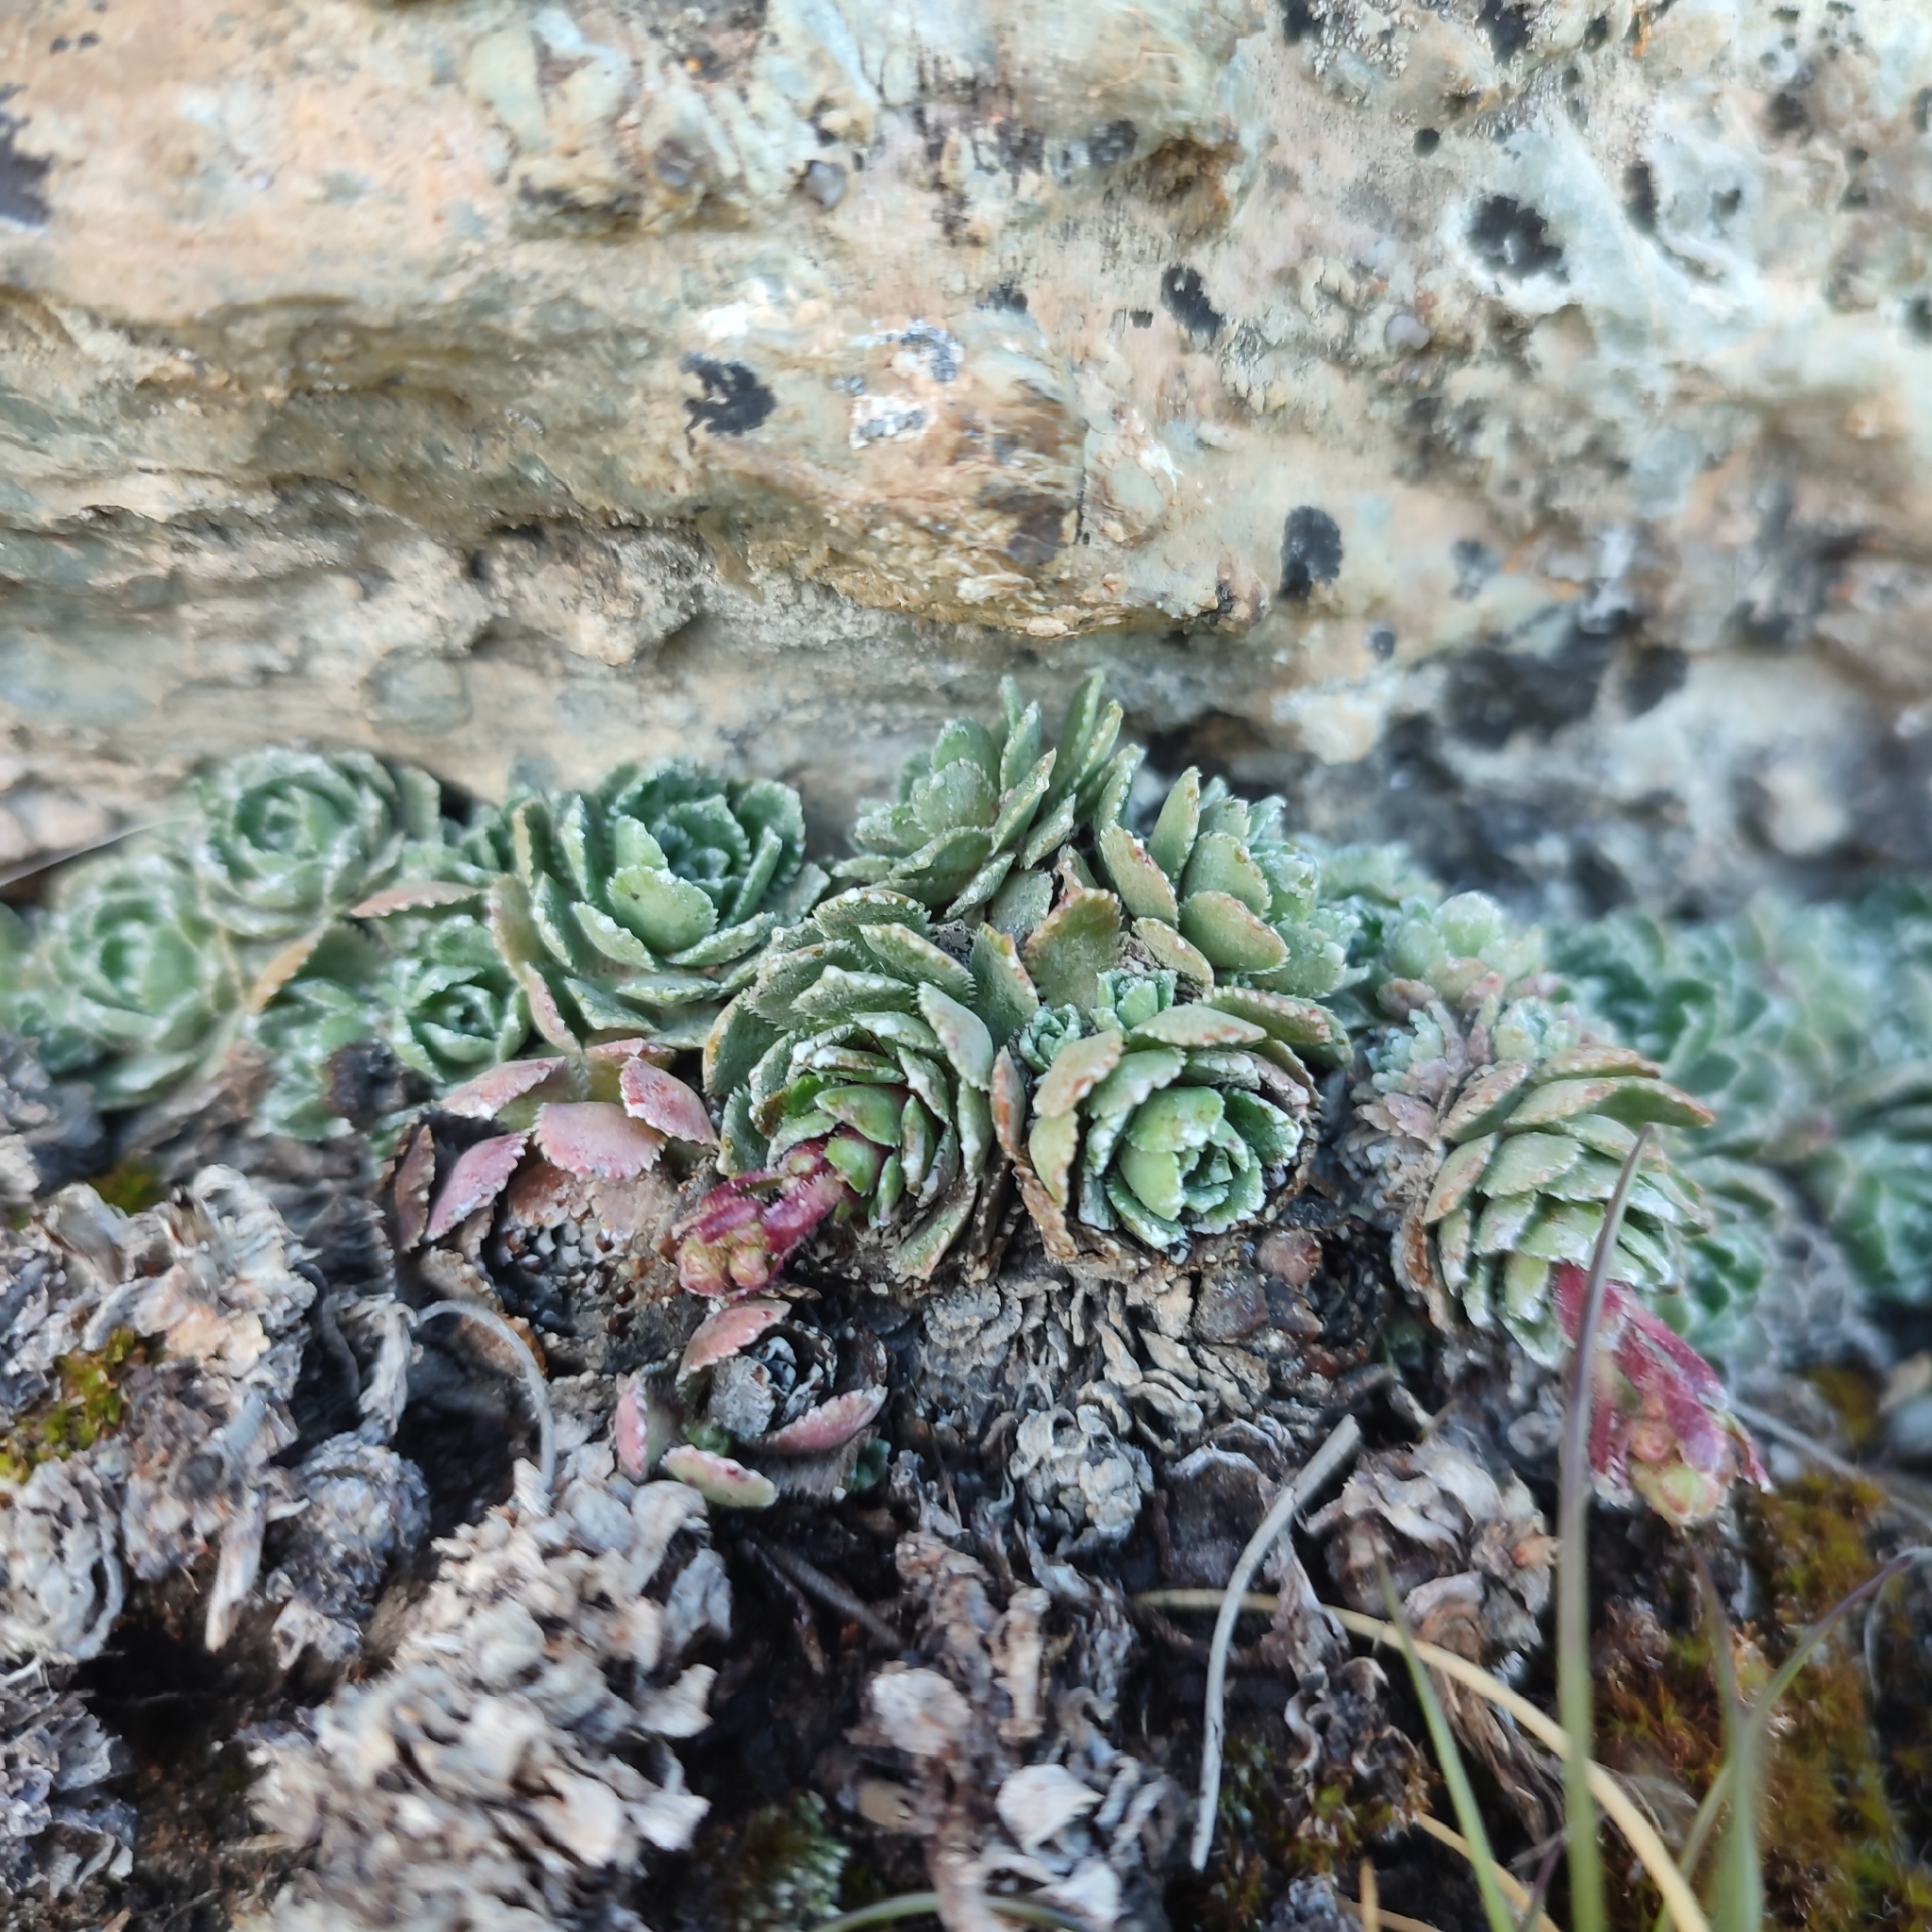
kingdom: Plantae
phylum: Tracheophyta
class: Magnoliopsida
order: Saxifragales
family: Saxifragaceae
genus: Saxifraga
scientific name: Saxifraga paniculata
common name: Livelong saxifrage
